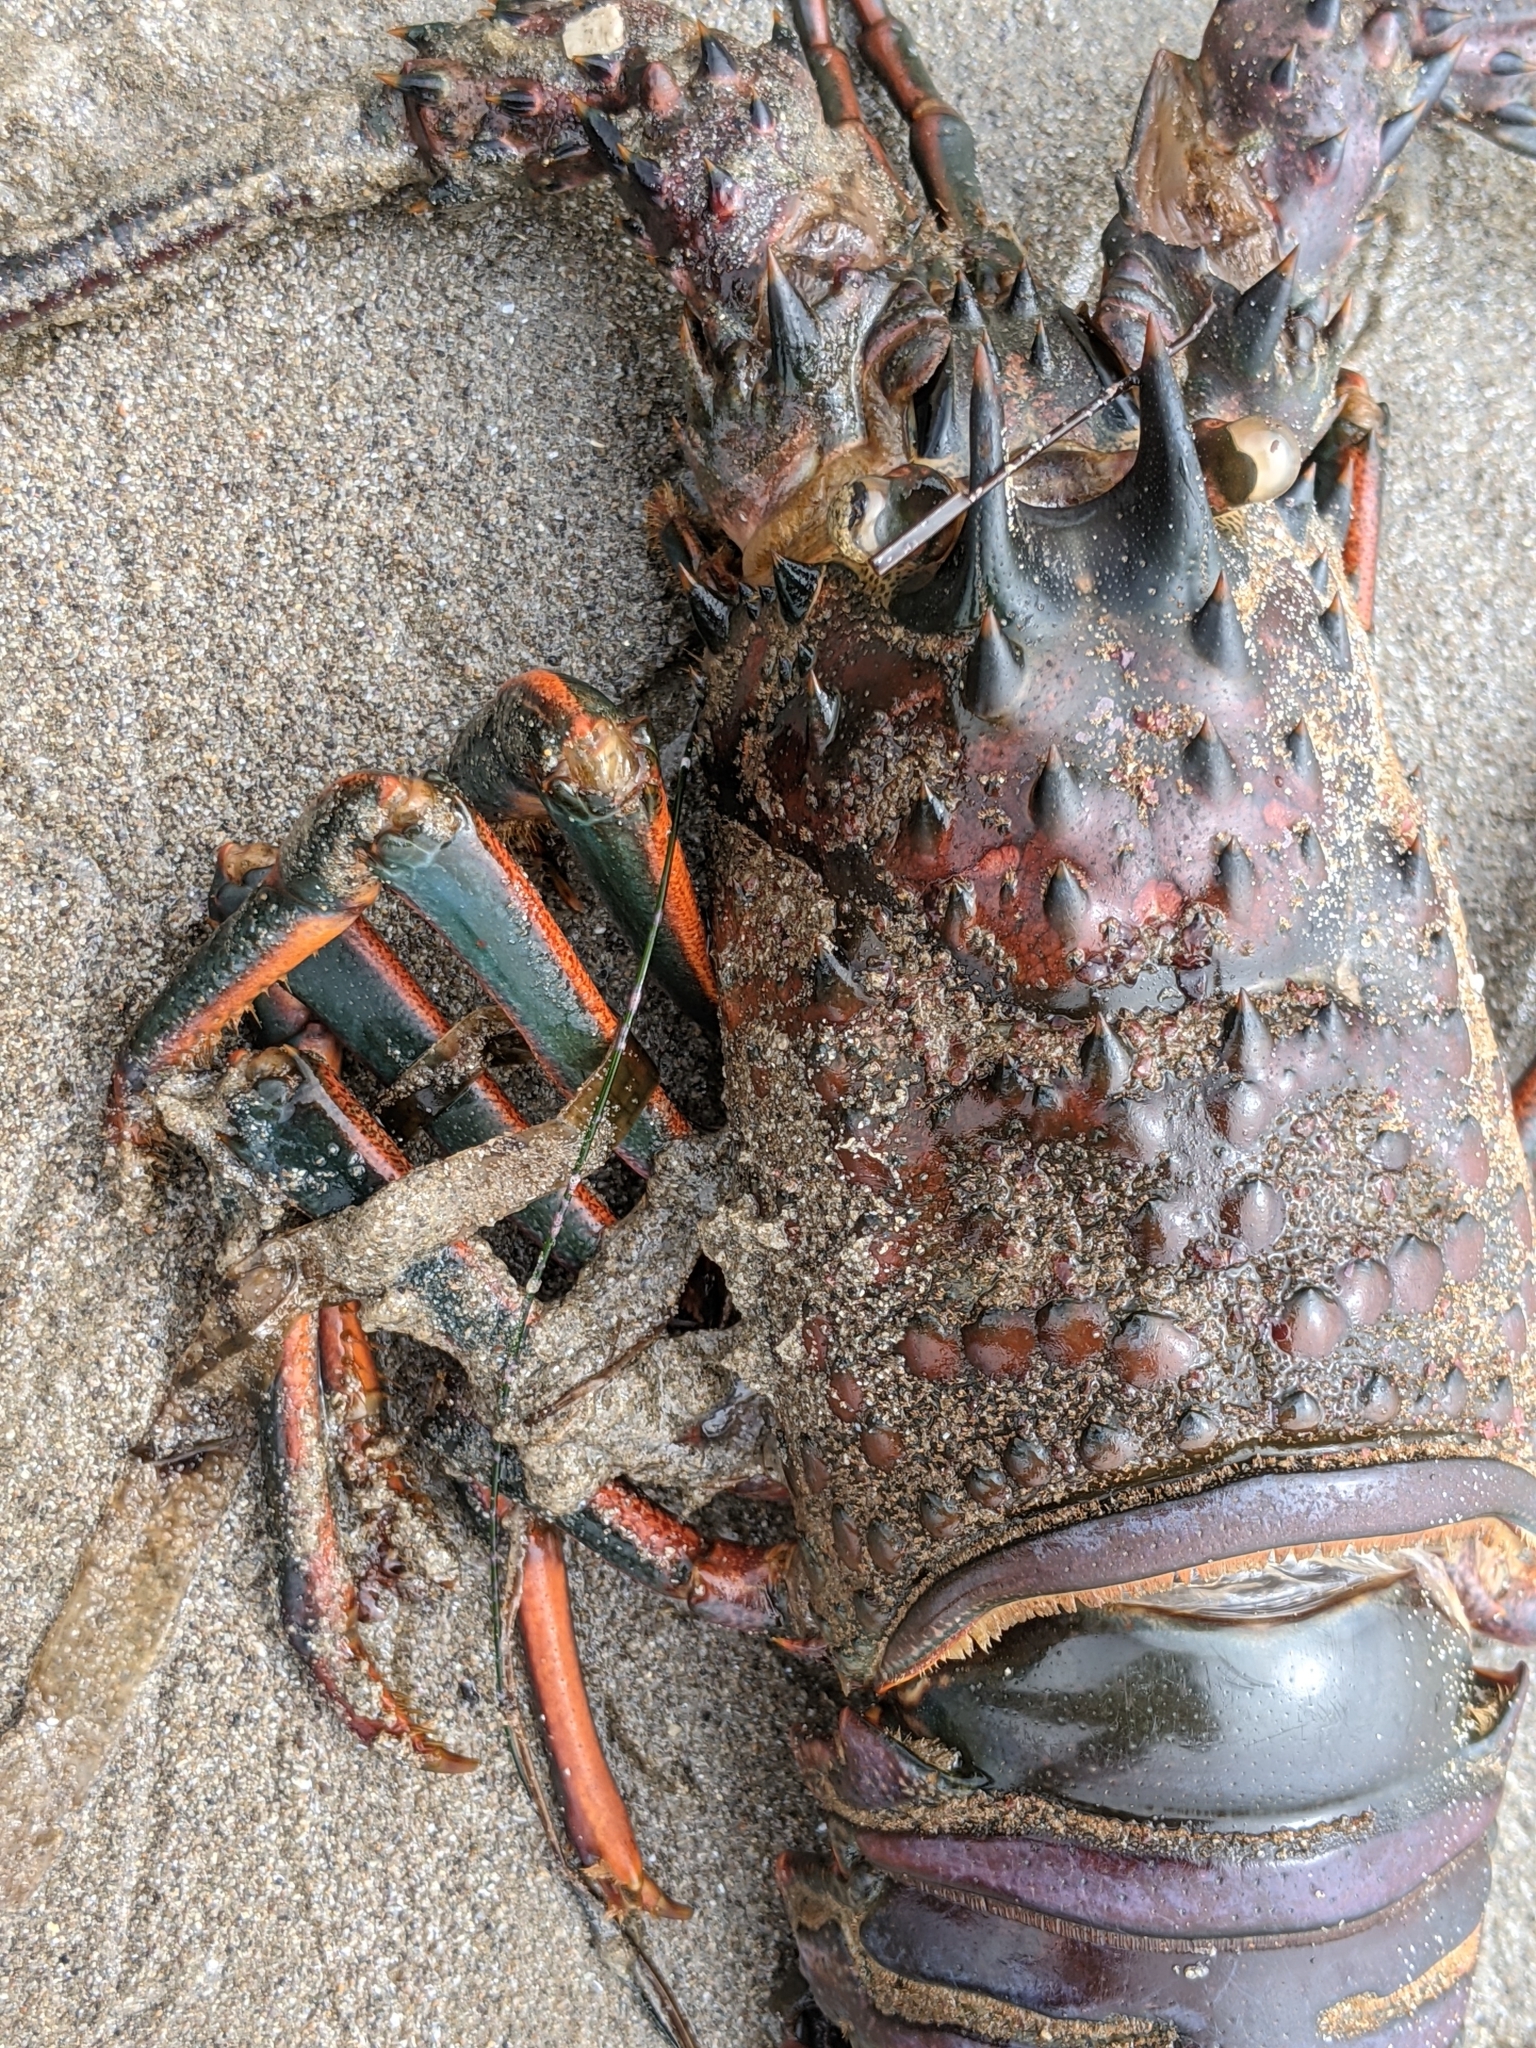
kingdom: Animalia
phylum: Arthropoda
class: Malacostraca
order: Decapoda
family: Palinuridae
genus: Panulirus
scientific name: Panulirus interruptus
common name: California spiny lobster
